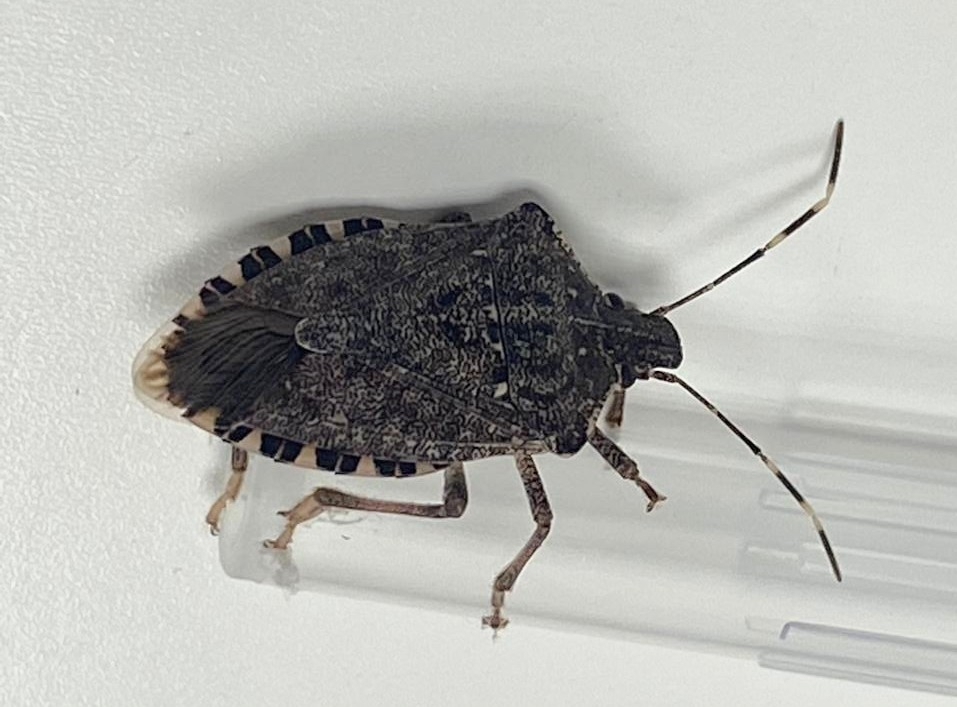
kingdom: Animalia
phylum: Arthropoda
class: Insecta
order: Hemiptera
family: Pentatomidae
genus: Halyomorpha
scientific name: Halyomorpha halys
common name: Brown marmorated stink bug
